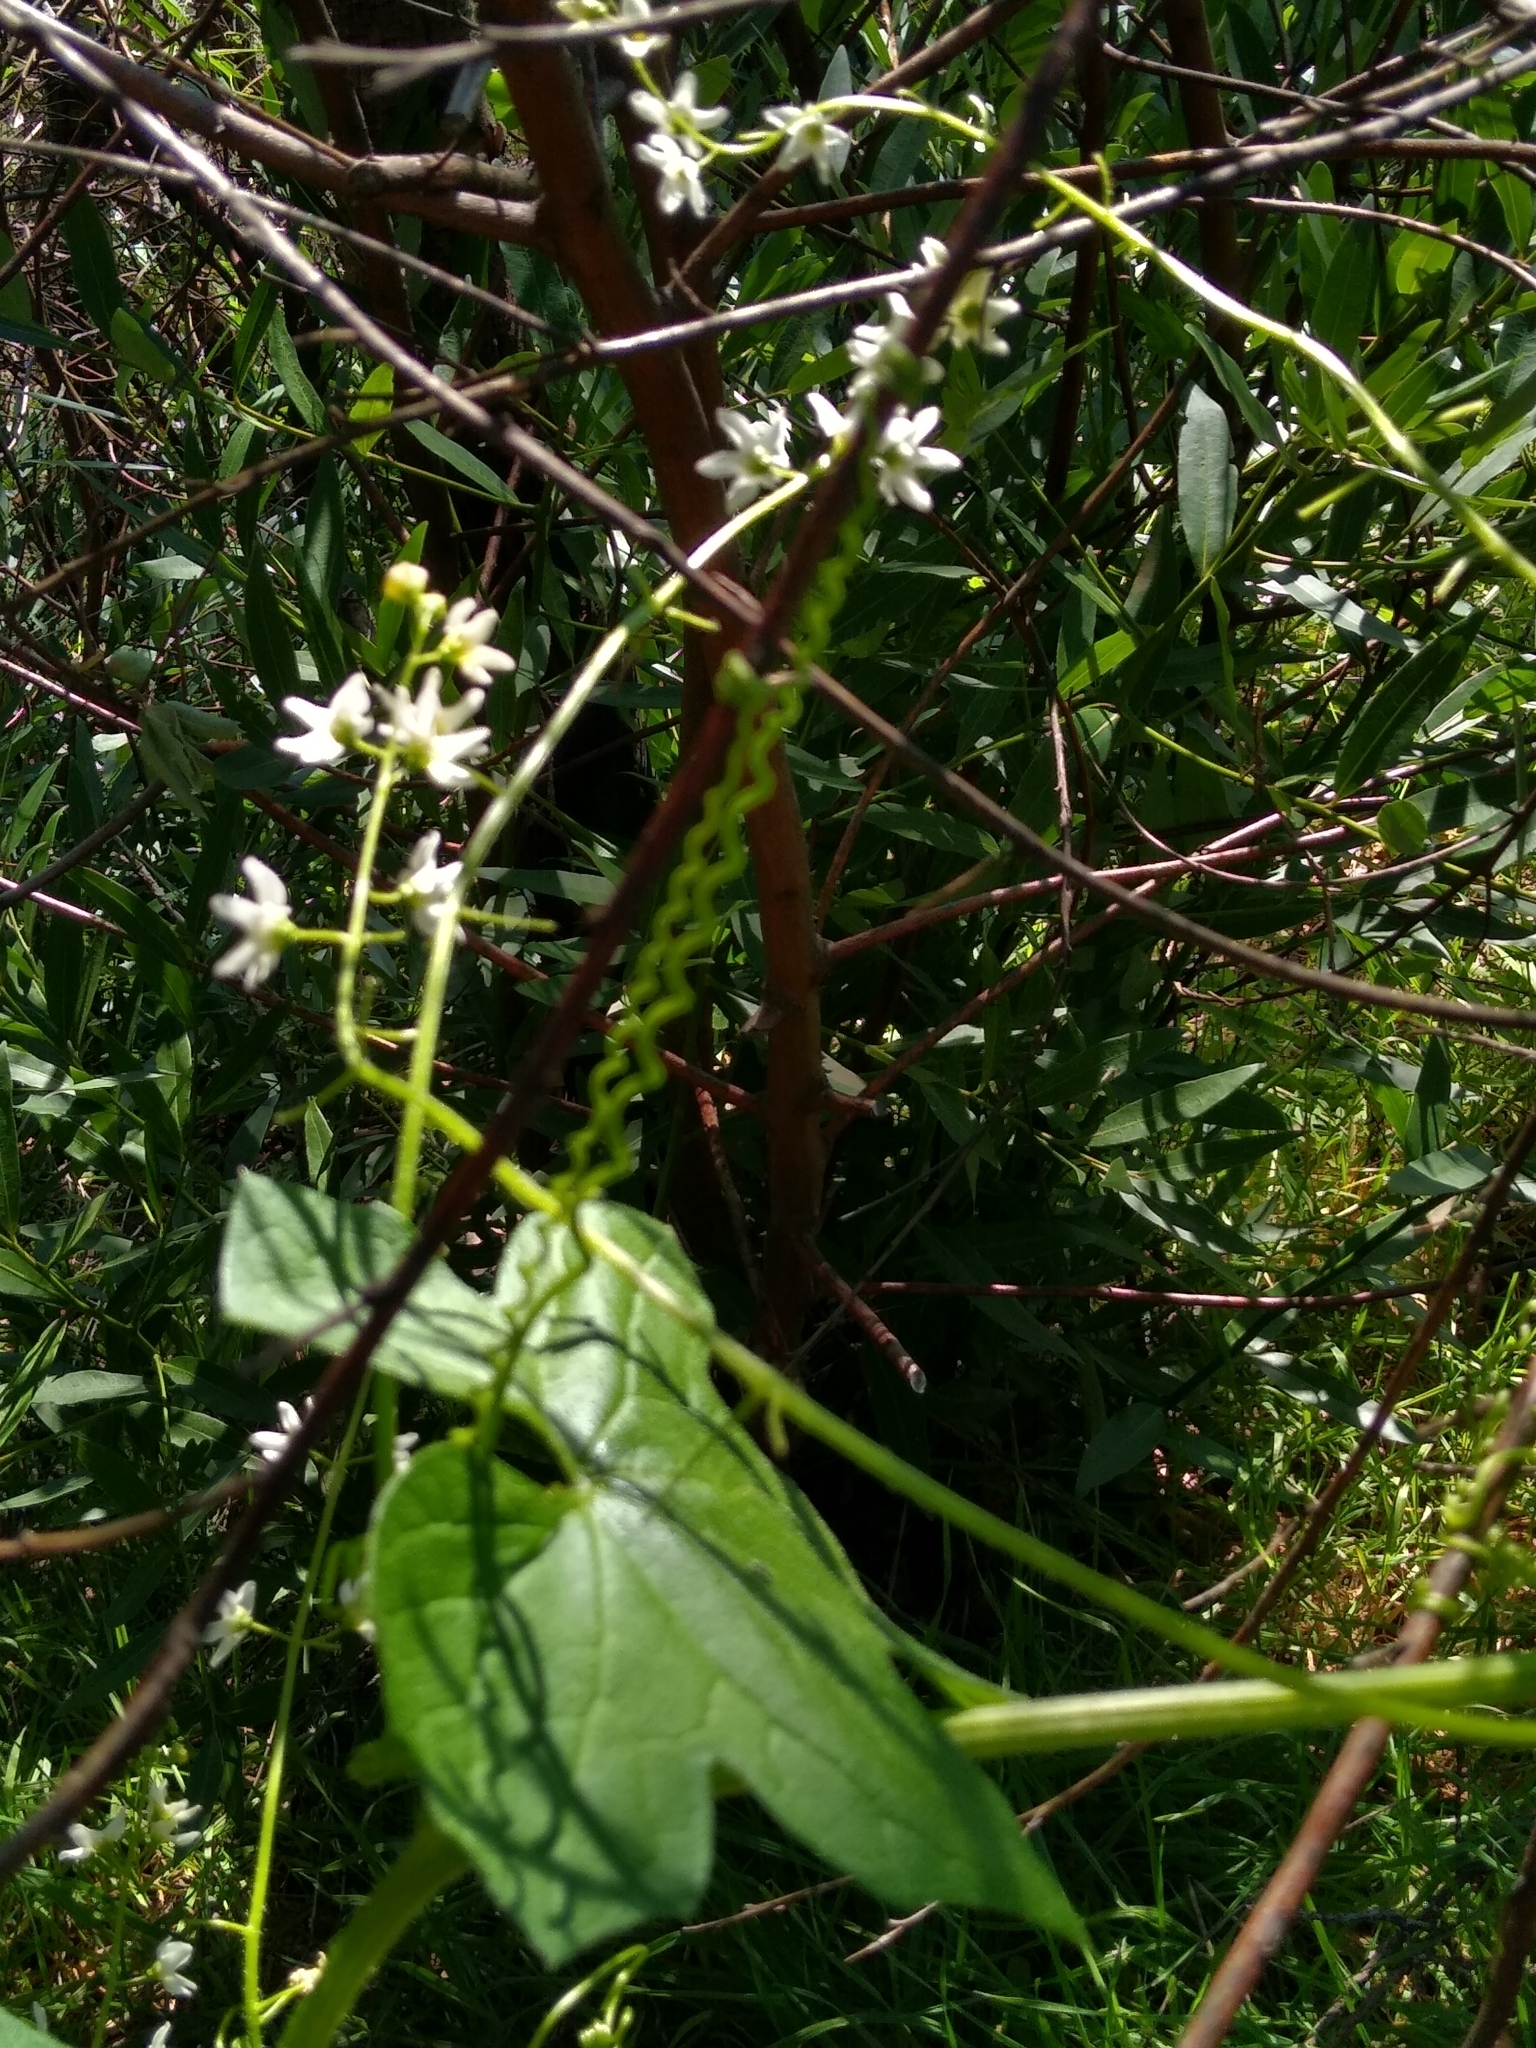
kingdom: Plantae
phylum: Tracheophyta
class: Magnoliopsida
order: Cucurbitales
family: Cucurbitaceae
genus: Marah
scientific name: Marah fabacea
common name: California manroot
